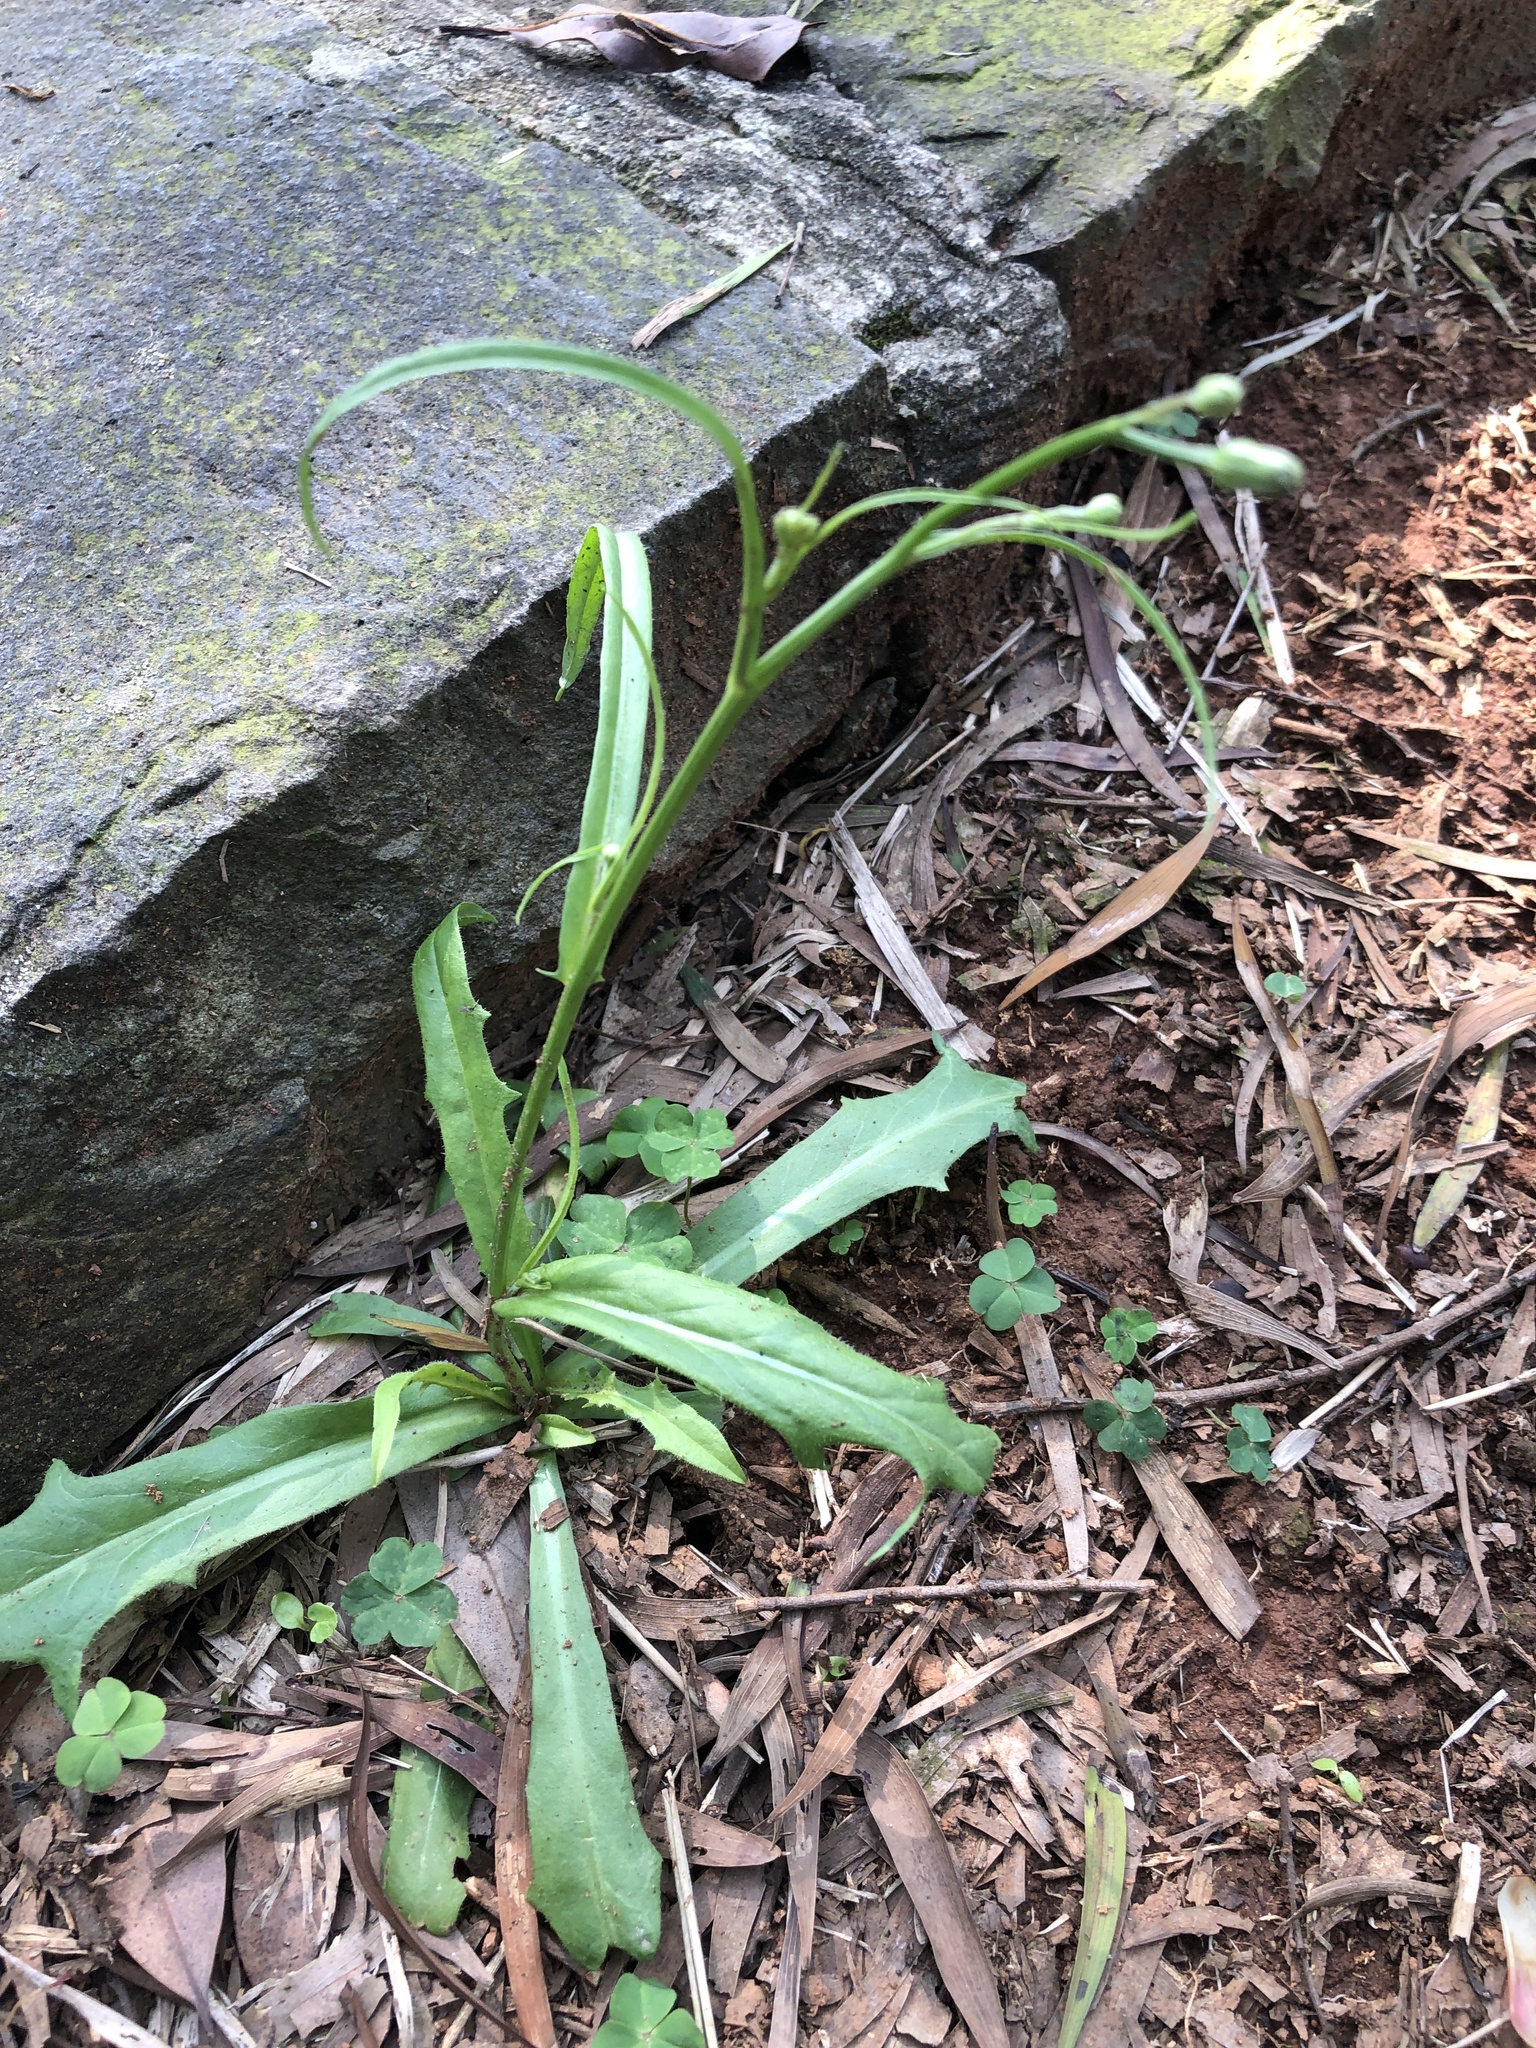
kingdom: Plantae
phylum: Tracheophyta
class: Magnoliopsida
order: Asterales
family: Asteraceae
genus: Hypochaeris
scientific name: Hypochaeris albiflora
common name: White flatweed
